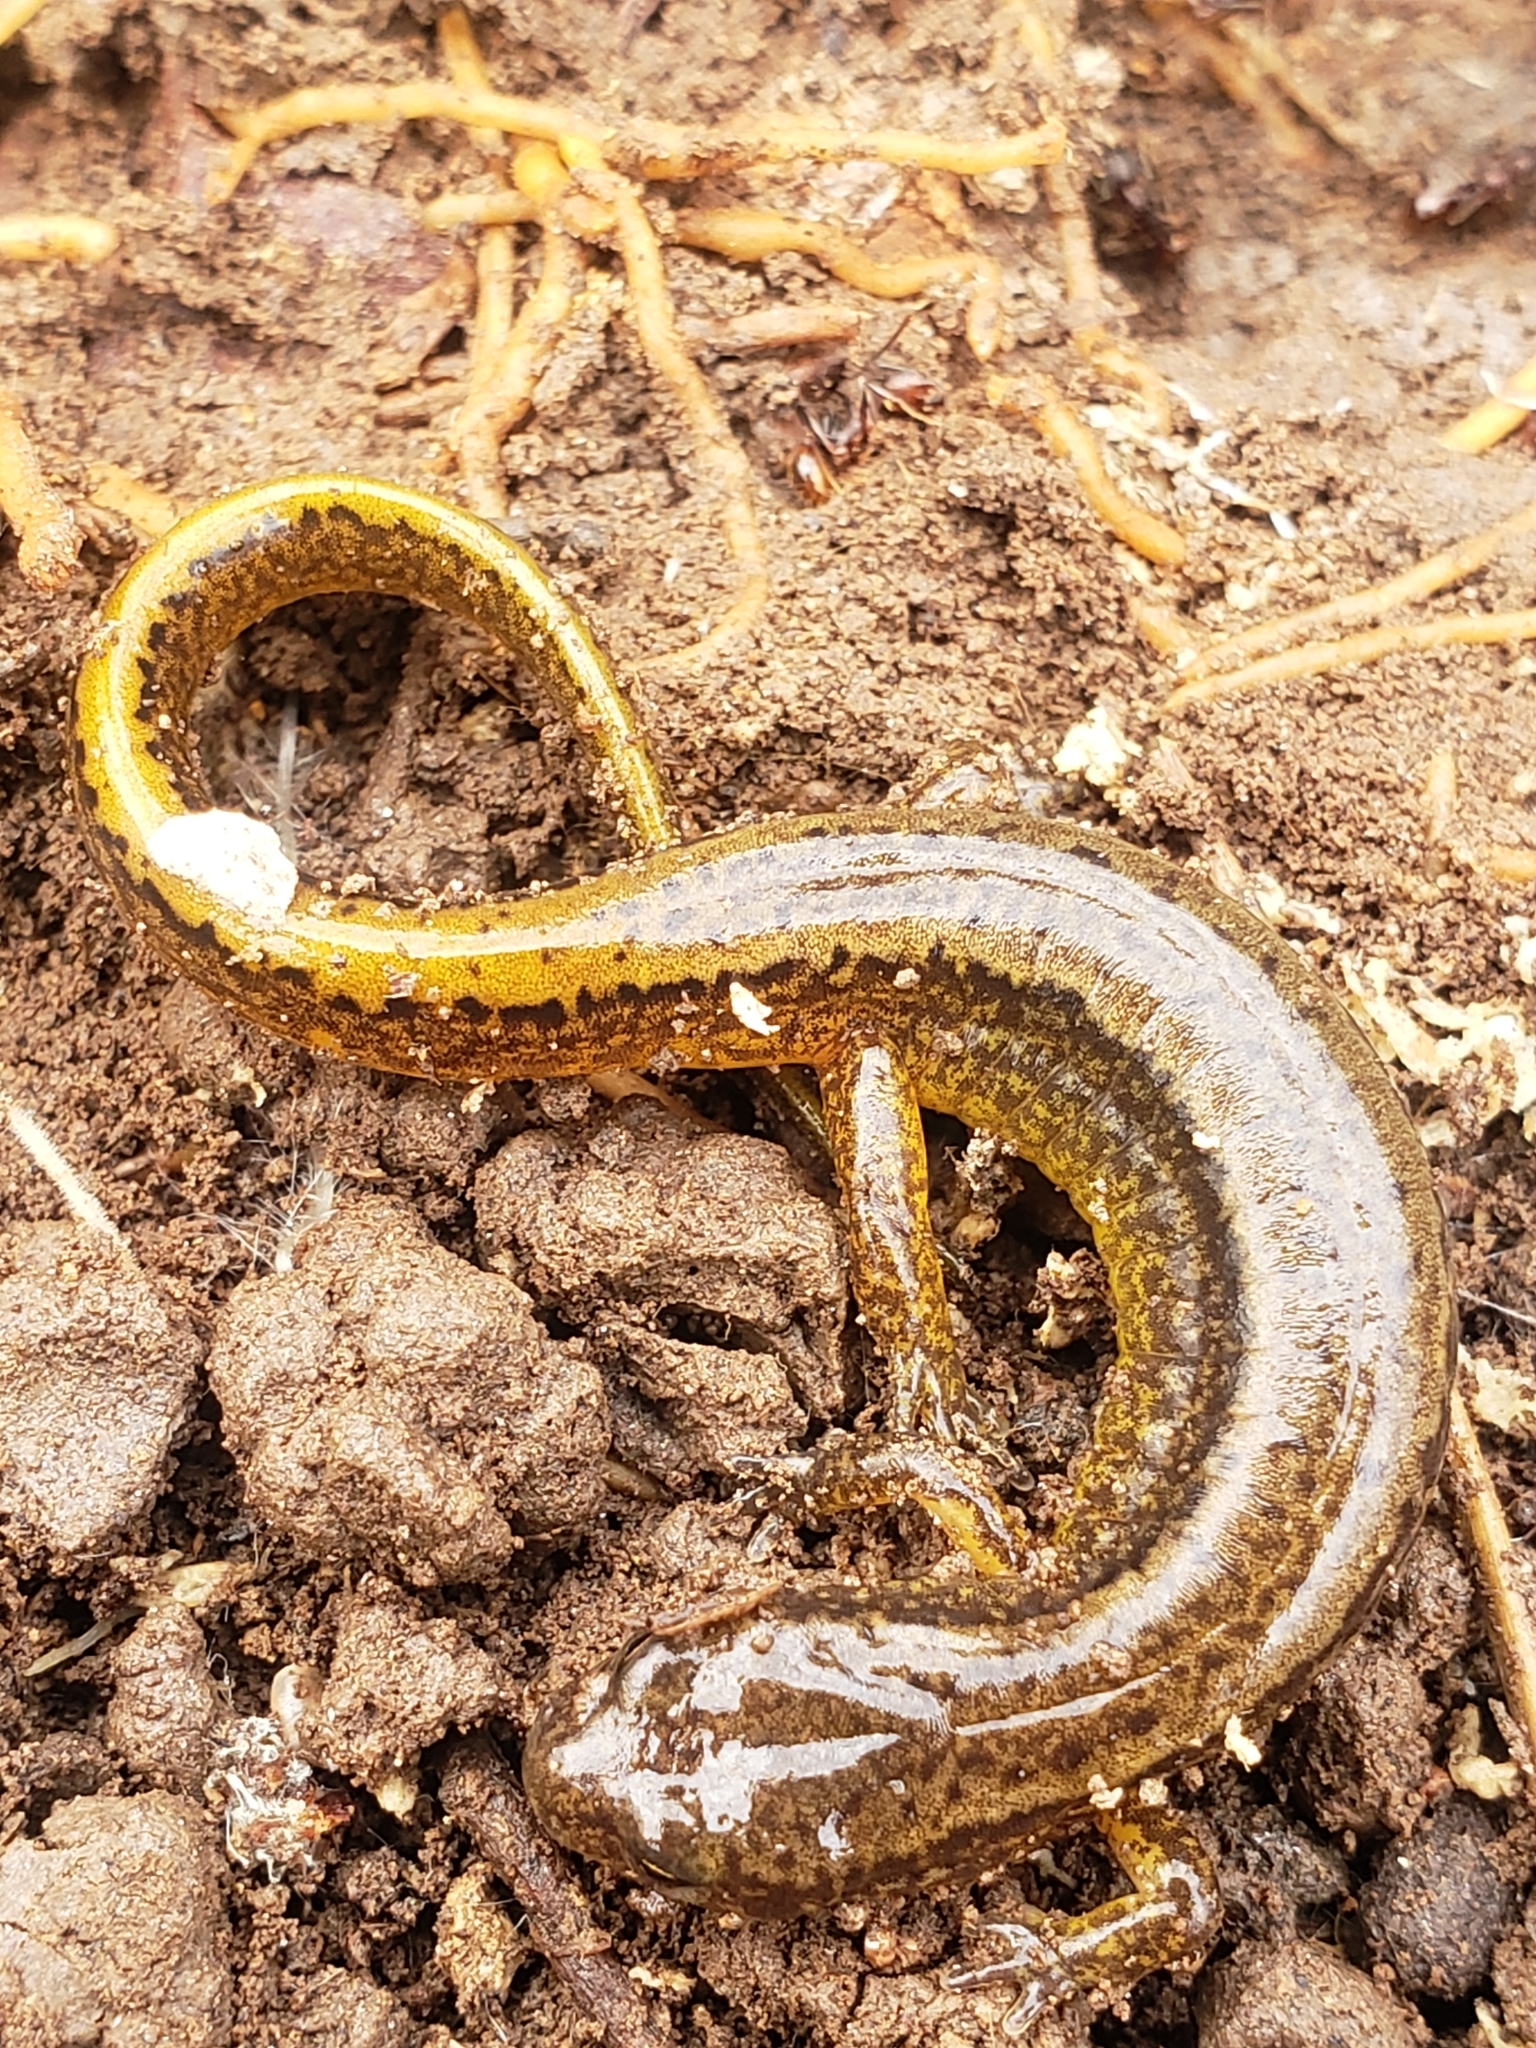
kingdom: Animalia
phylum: Chordata
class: Amphibia
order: Caudata
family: Plethodontidae
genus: Eurycea
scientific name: Eurycea bislineata
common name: Northern two-lined salamander
